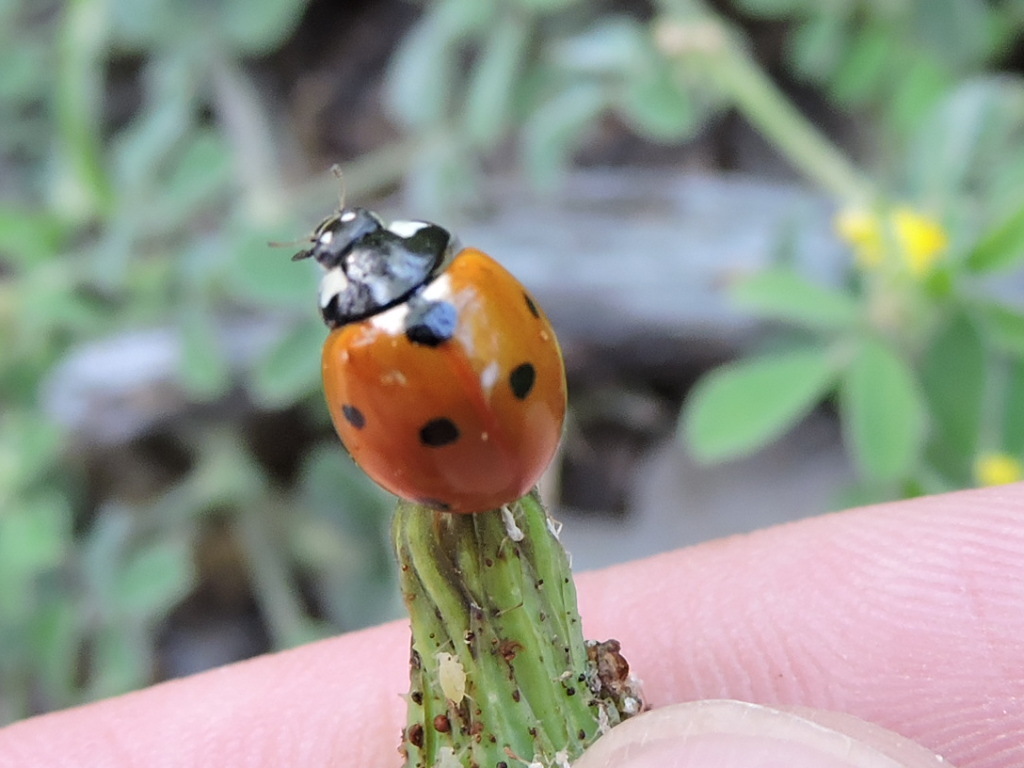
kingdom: Animalia
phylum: Arthropoda
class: Insecta
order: Coleoptera
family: Coccinellidae
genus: Coccinella
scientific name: Coccinella septempunctata
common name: Sevenspotted lady beetle
